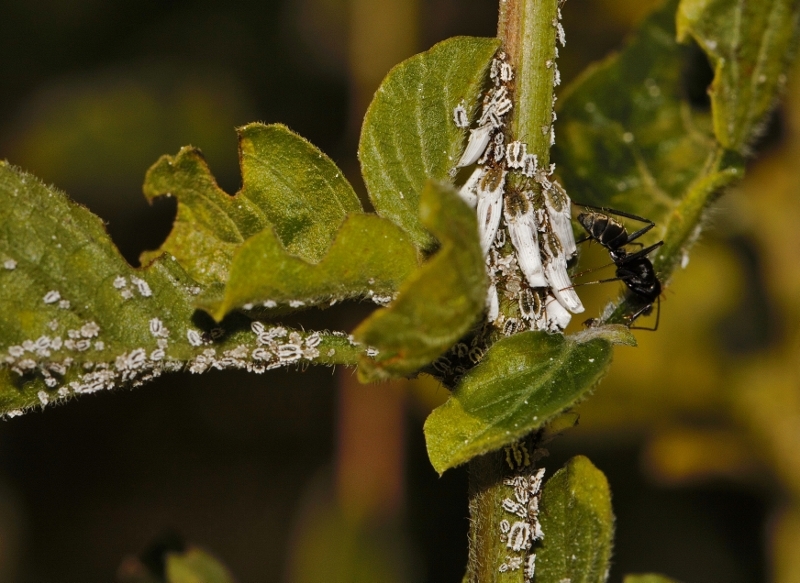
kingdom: Animalia
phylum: Arthropoda
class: Insecta
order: Hemiptera
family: Ortheziidae
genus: Insignorthezia
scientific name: Insignorthezia insignis
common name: Greenhouse orthezia
